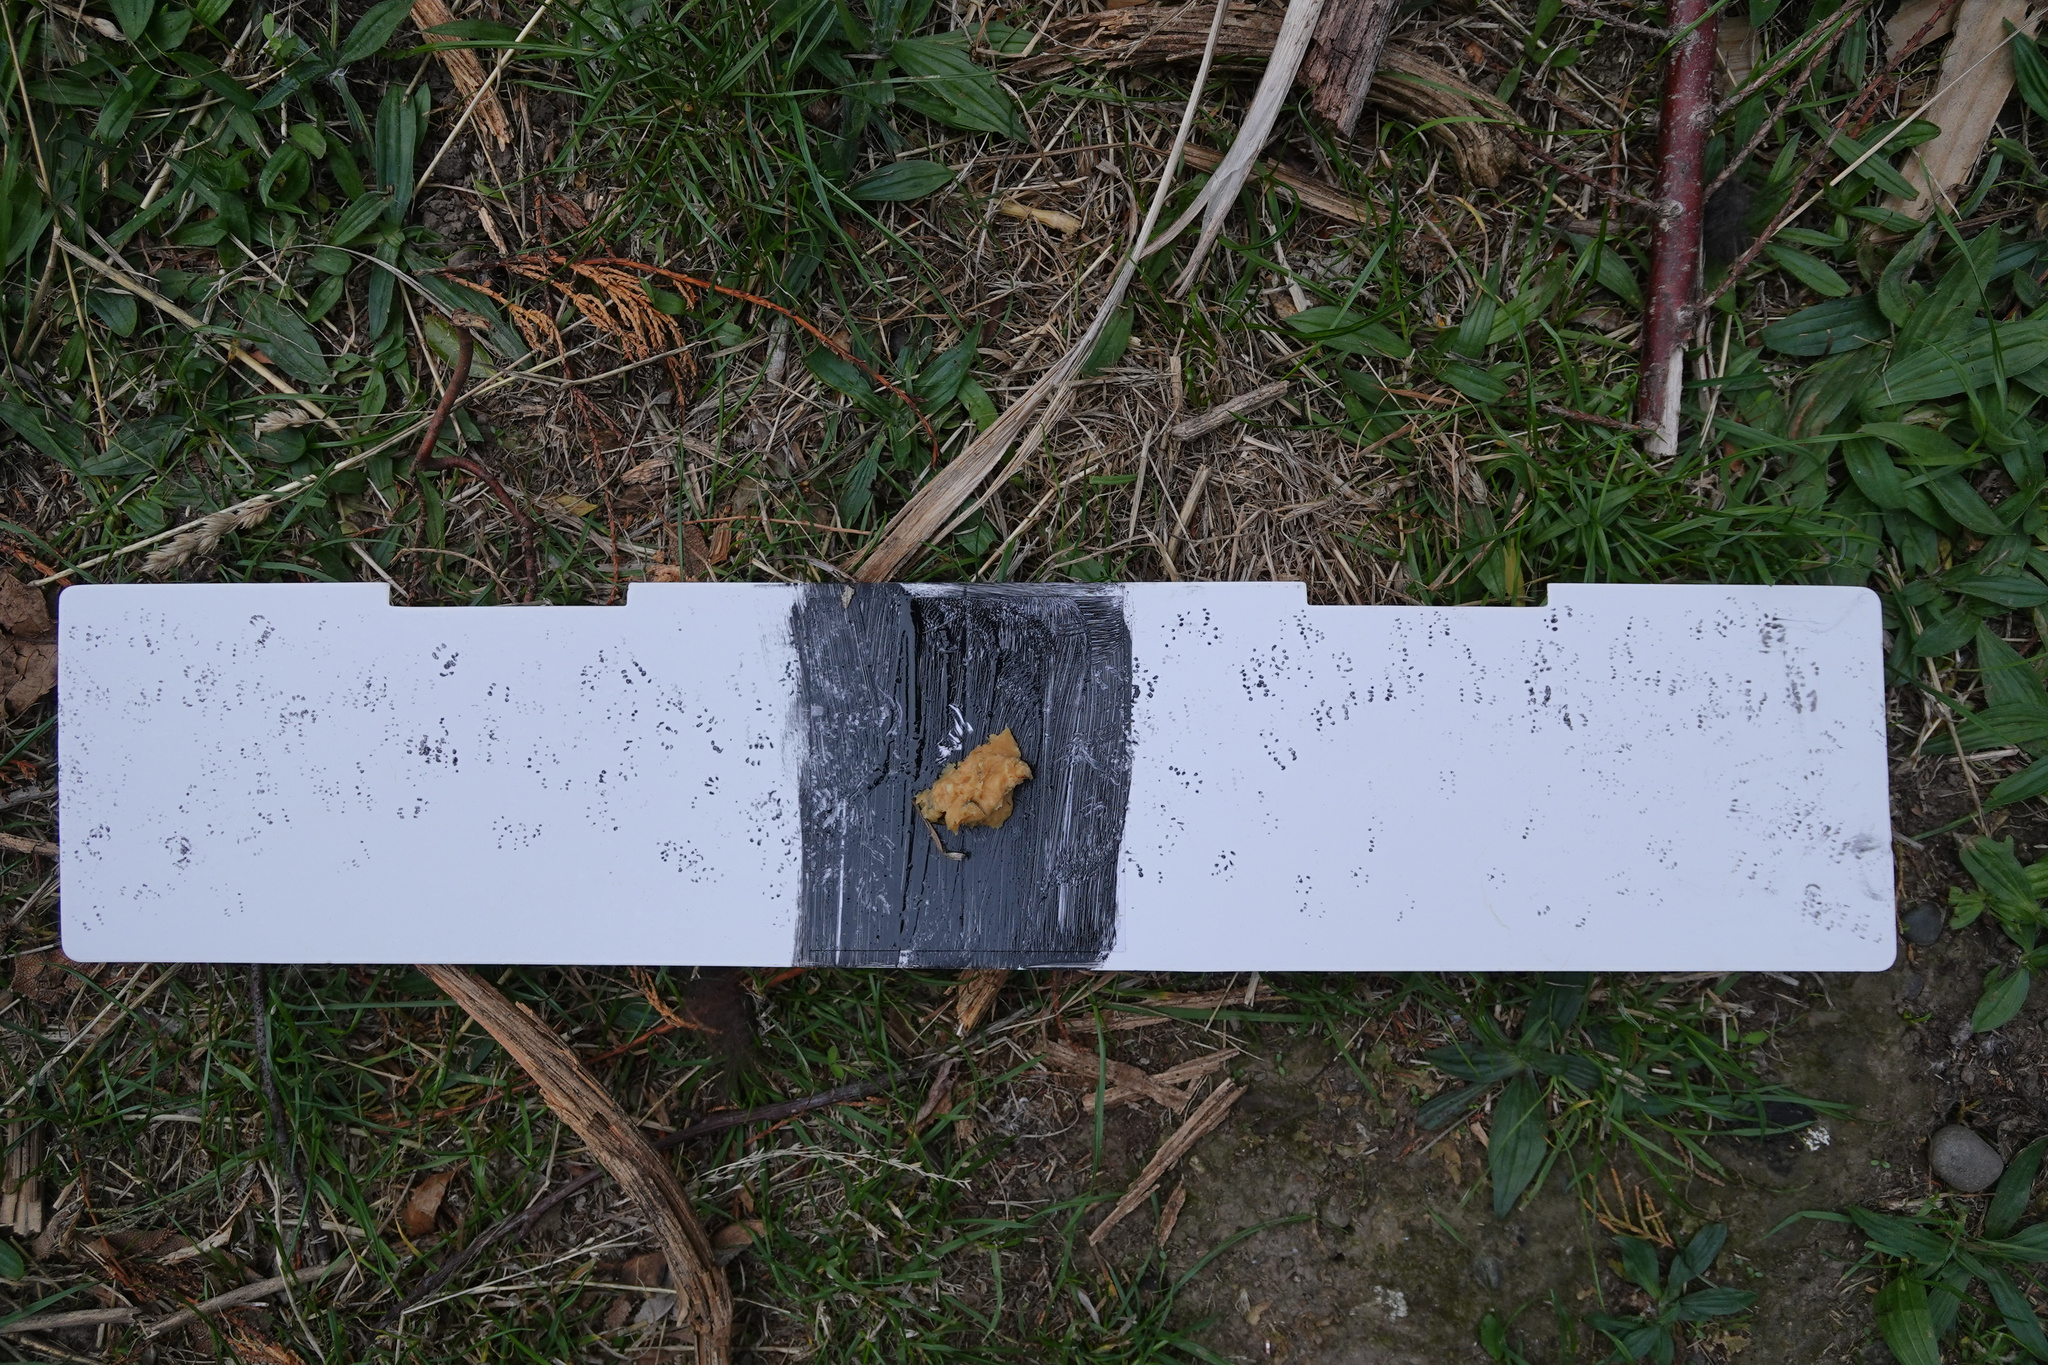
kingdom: Animalia
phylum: Chordata
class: Mammalia
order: Rodentia
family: Muridae
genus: Mus
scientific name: Mus musculus
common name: House mouse
